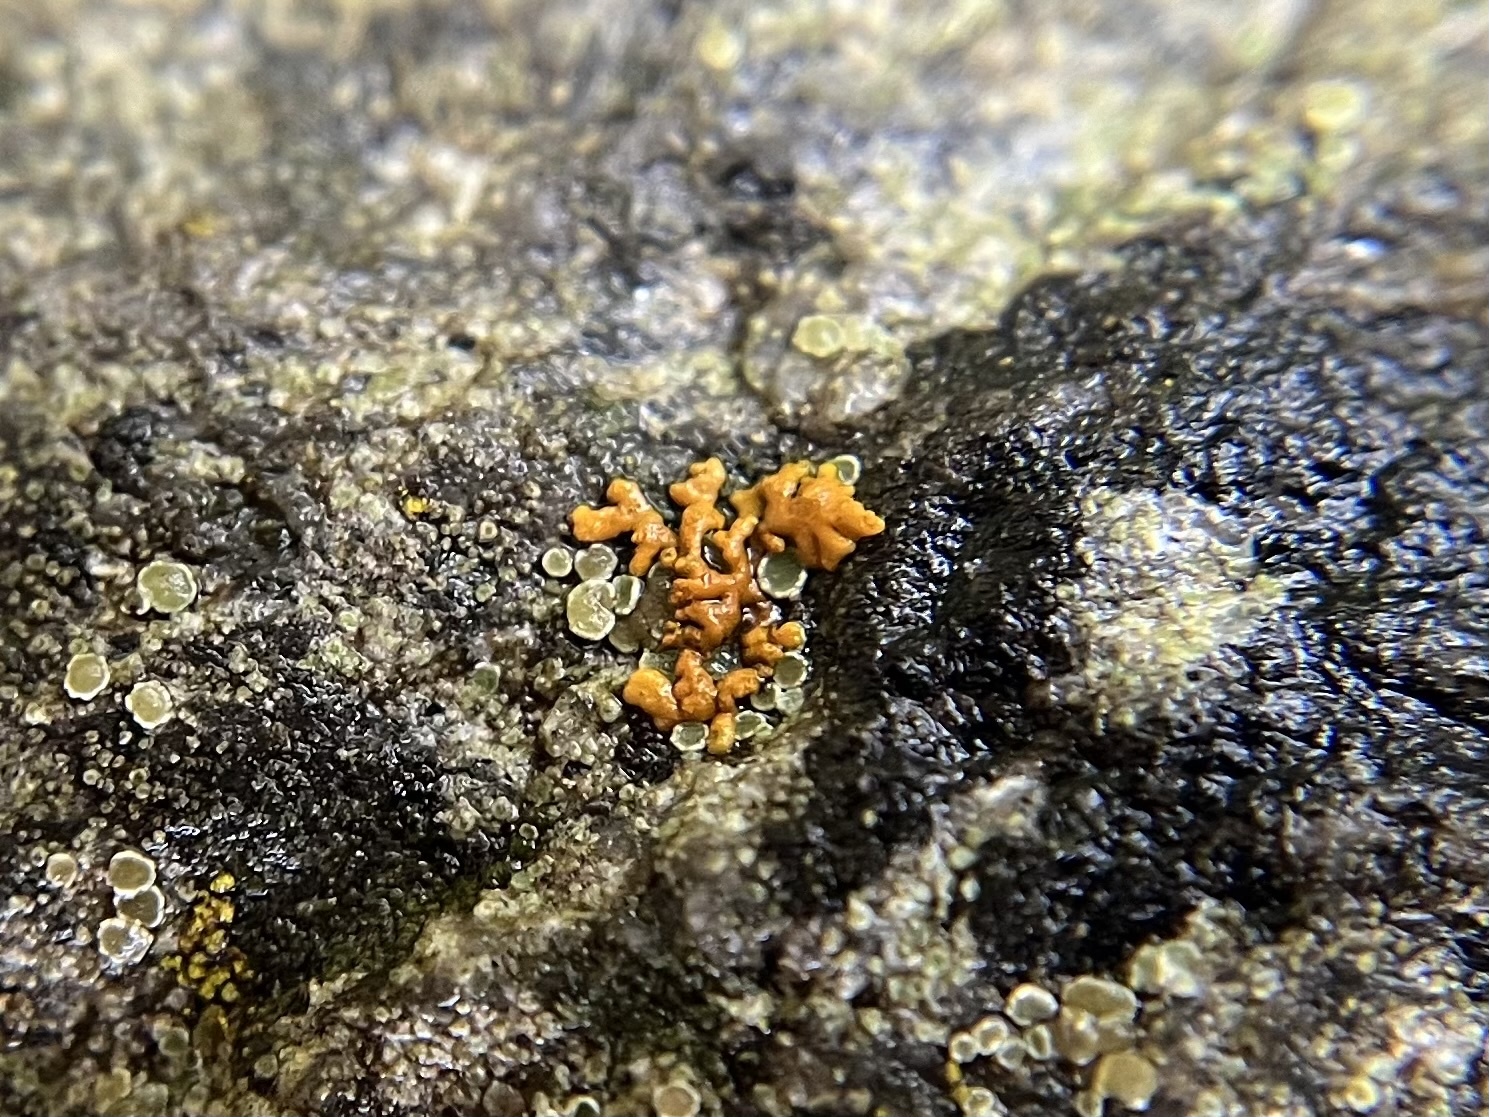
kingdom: Fungi
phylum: Ascomycota
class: Lecanoromycetes
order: Teloschistales
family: Teloschistaceae
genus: Xanthoria
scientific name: Xanthoria elegans
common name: Elegant sunburst lichen
